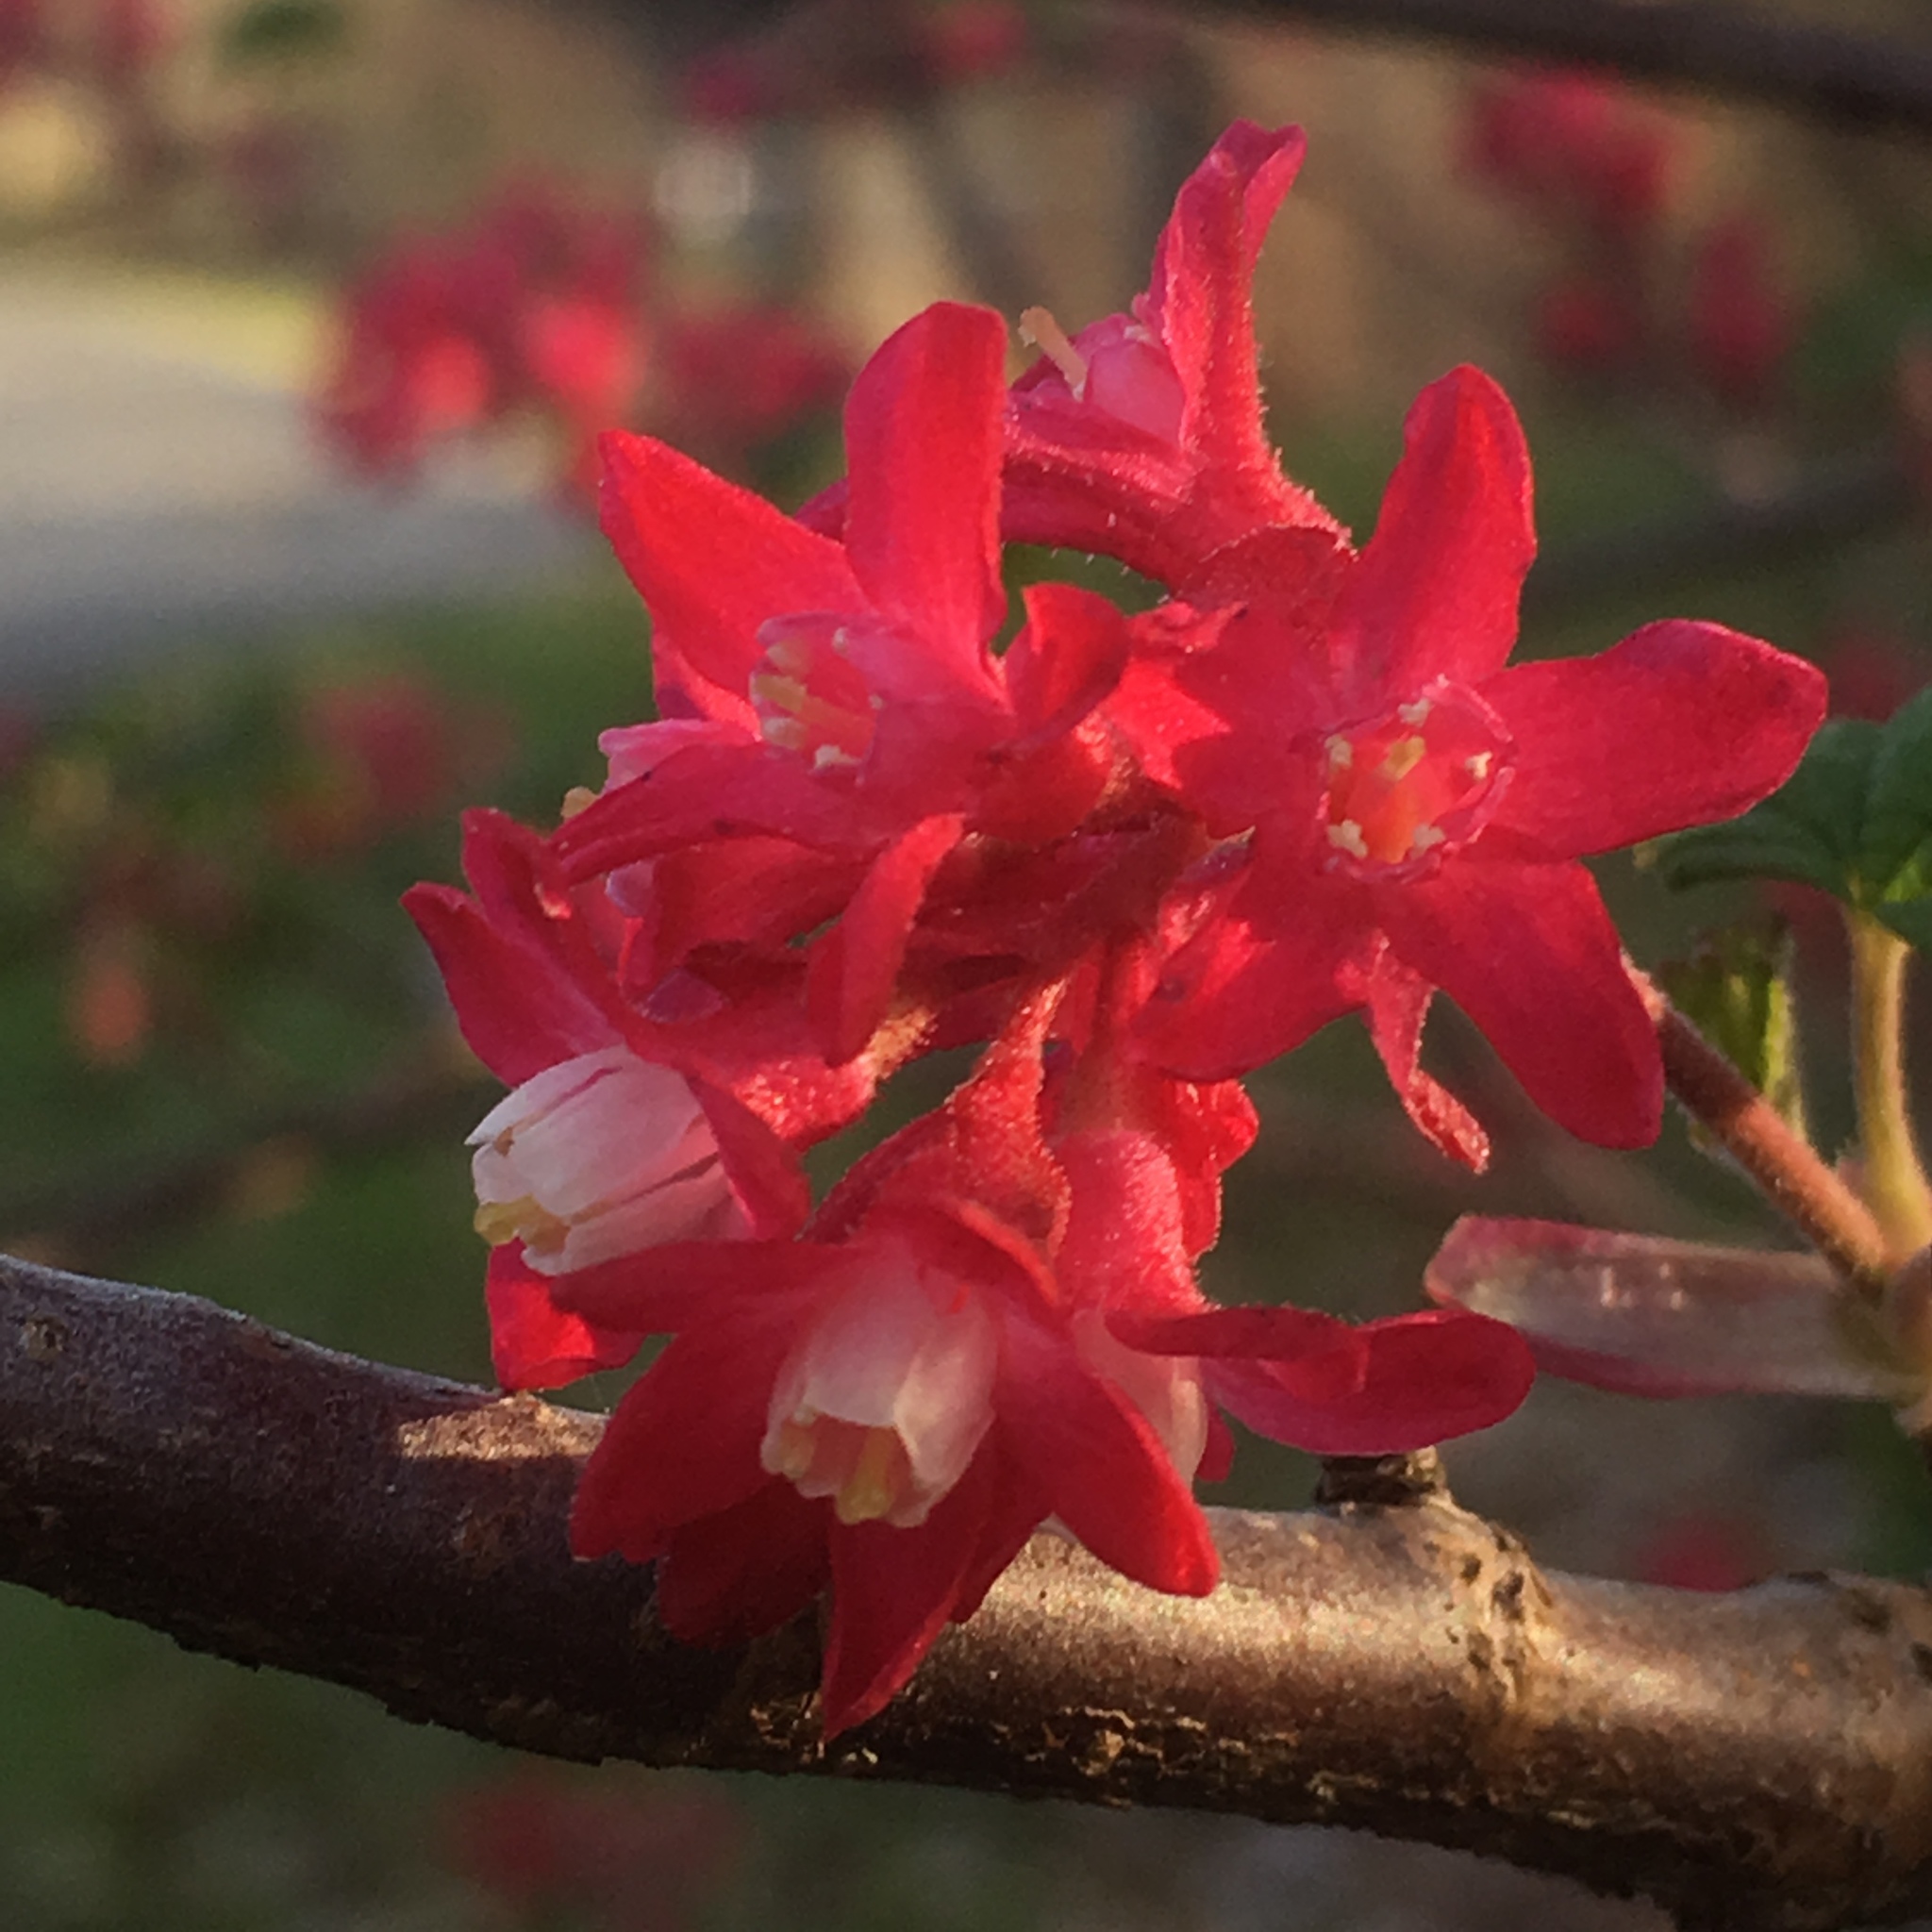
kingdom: Plantae
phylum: Tracheophyta
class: Magnoliopsida
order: Saxifragales
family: Grossulariaceae
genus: Ribes
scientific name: Ribes sanguineum
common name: Flowering currant
